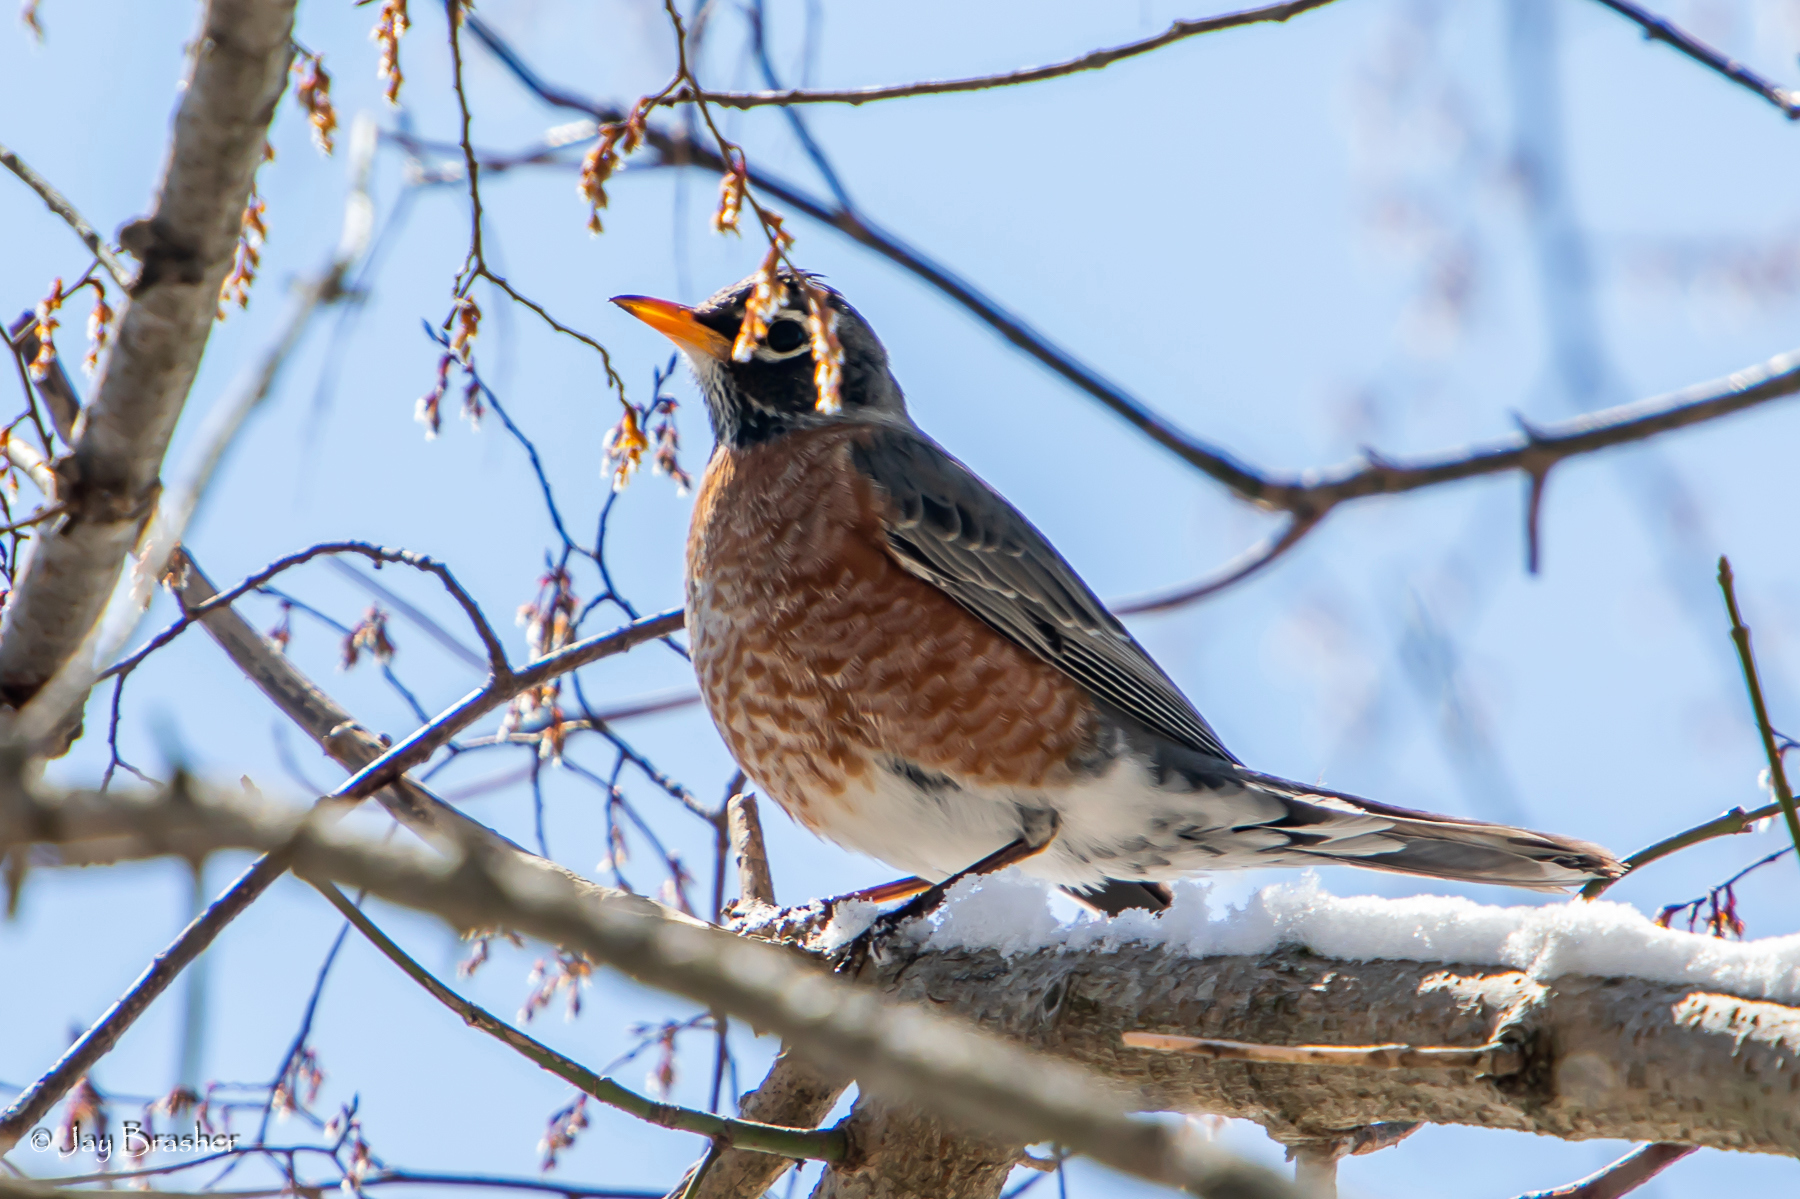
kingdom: Animalia
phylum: Chordata
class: Aves
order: Passeriformes
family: Turdidae
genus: Turdus
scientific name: Turdus migratorius
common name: American robin
